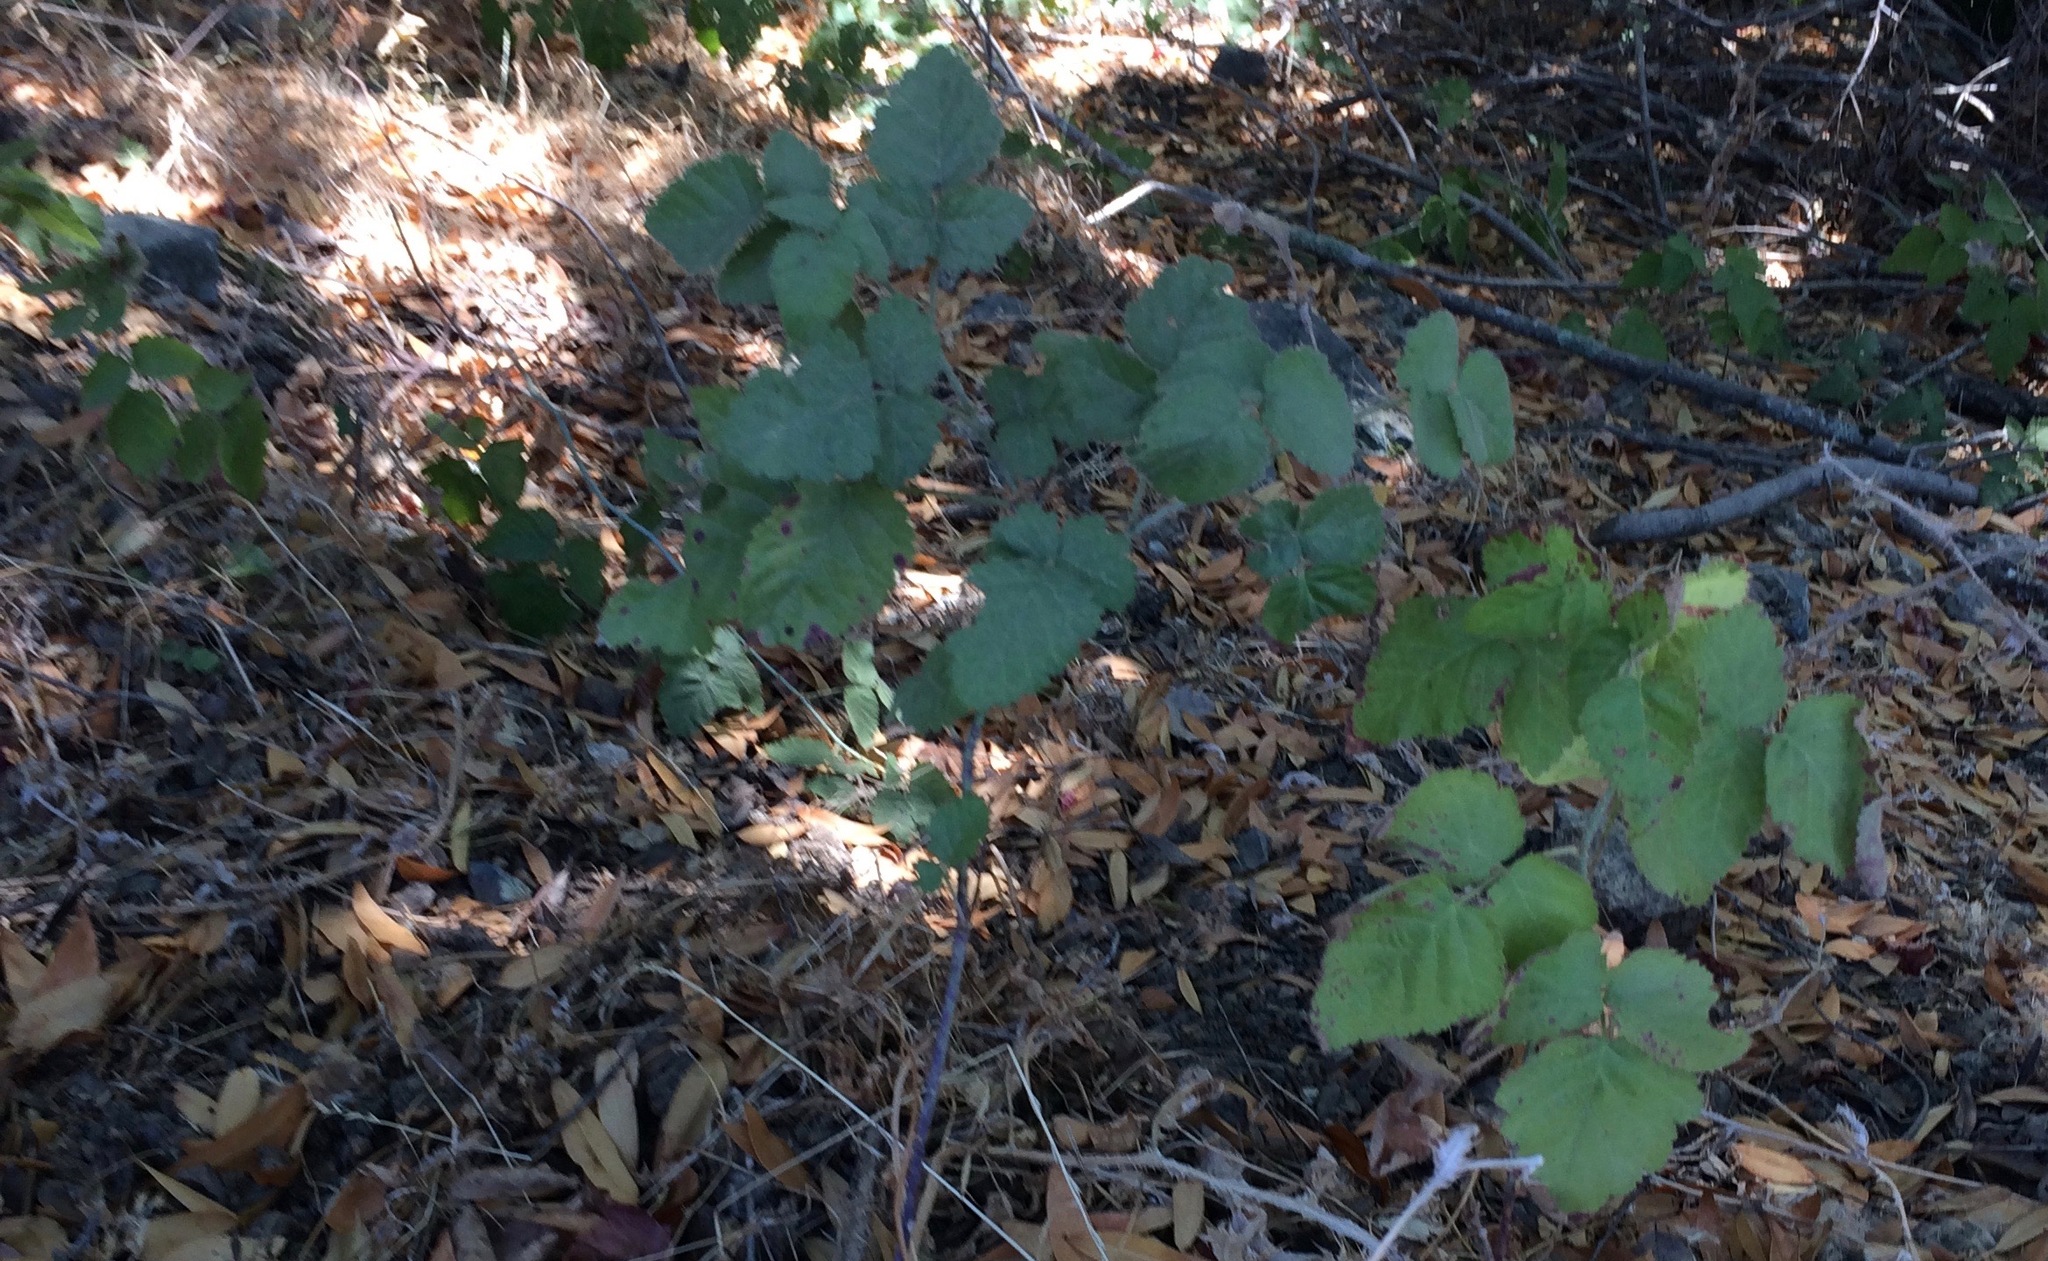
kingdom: Plantae
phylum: Tracheophyta
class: Magnoliopsida
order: Rosales
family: Rosaceae
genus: Rubus
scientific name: Rubus ursinus
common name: Pacific blackberry
